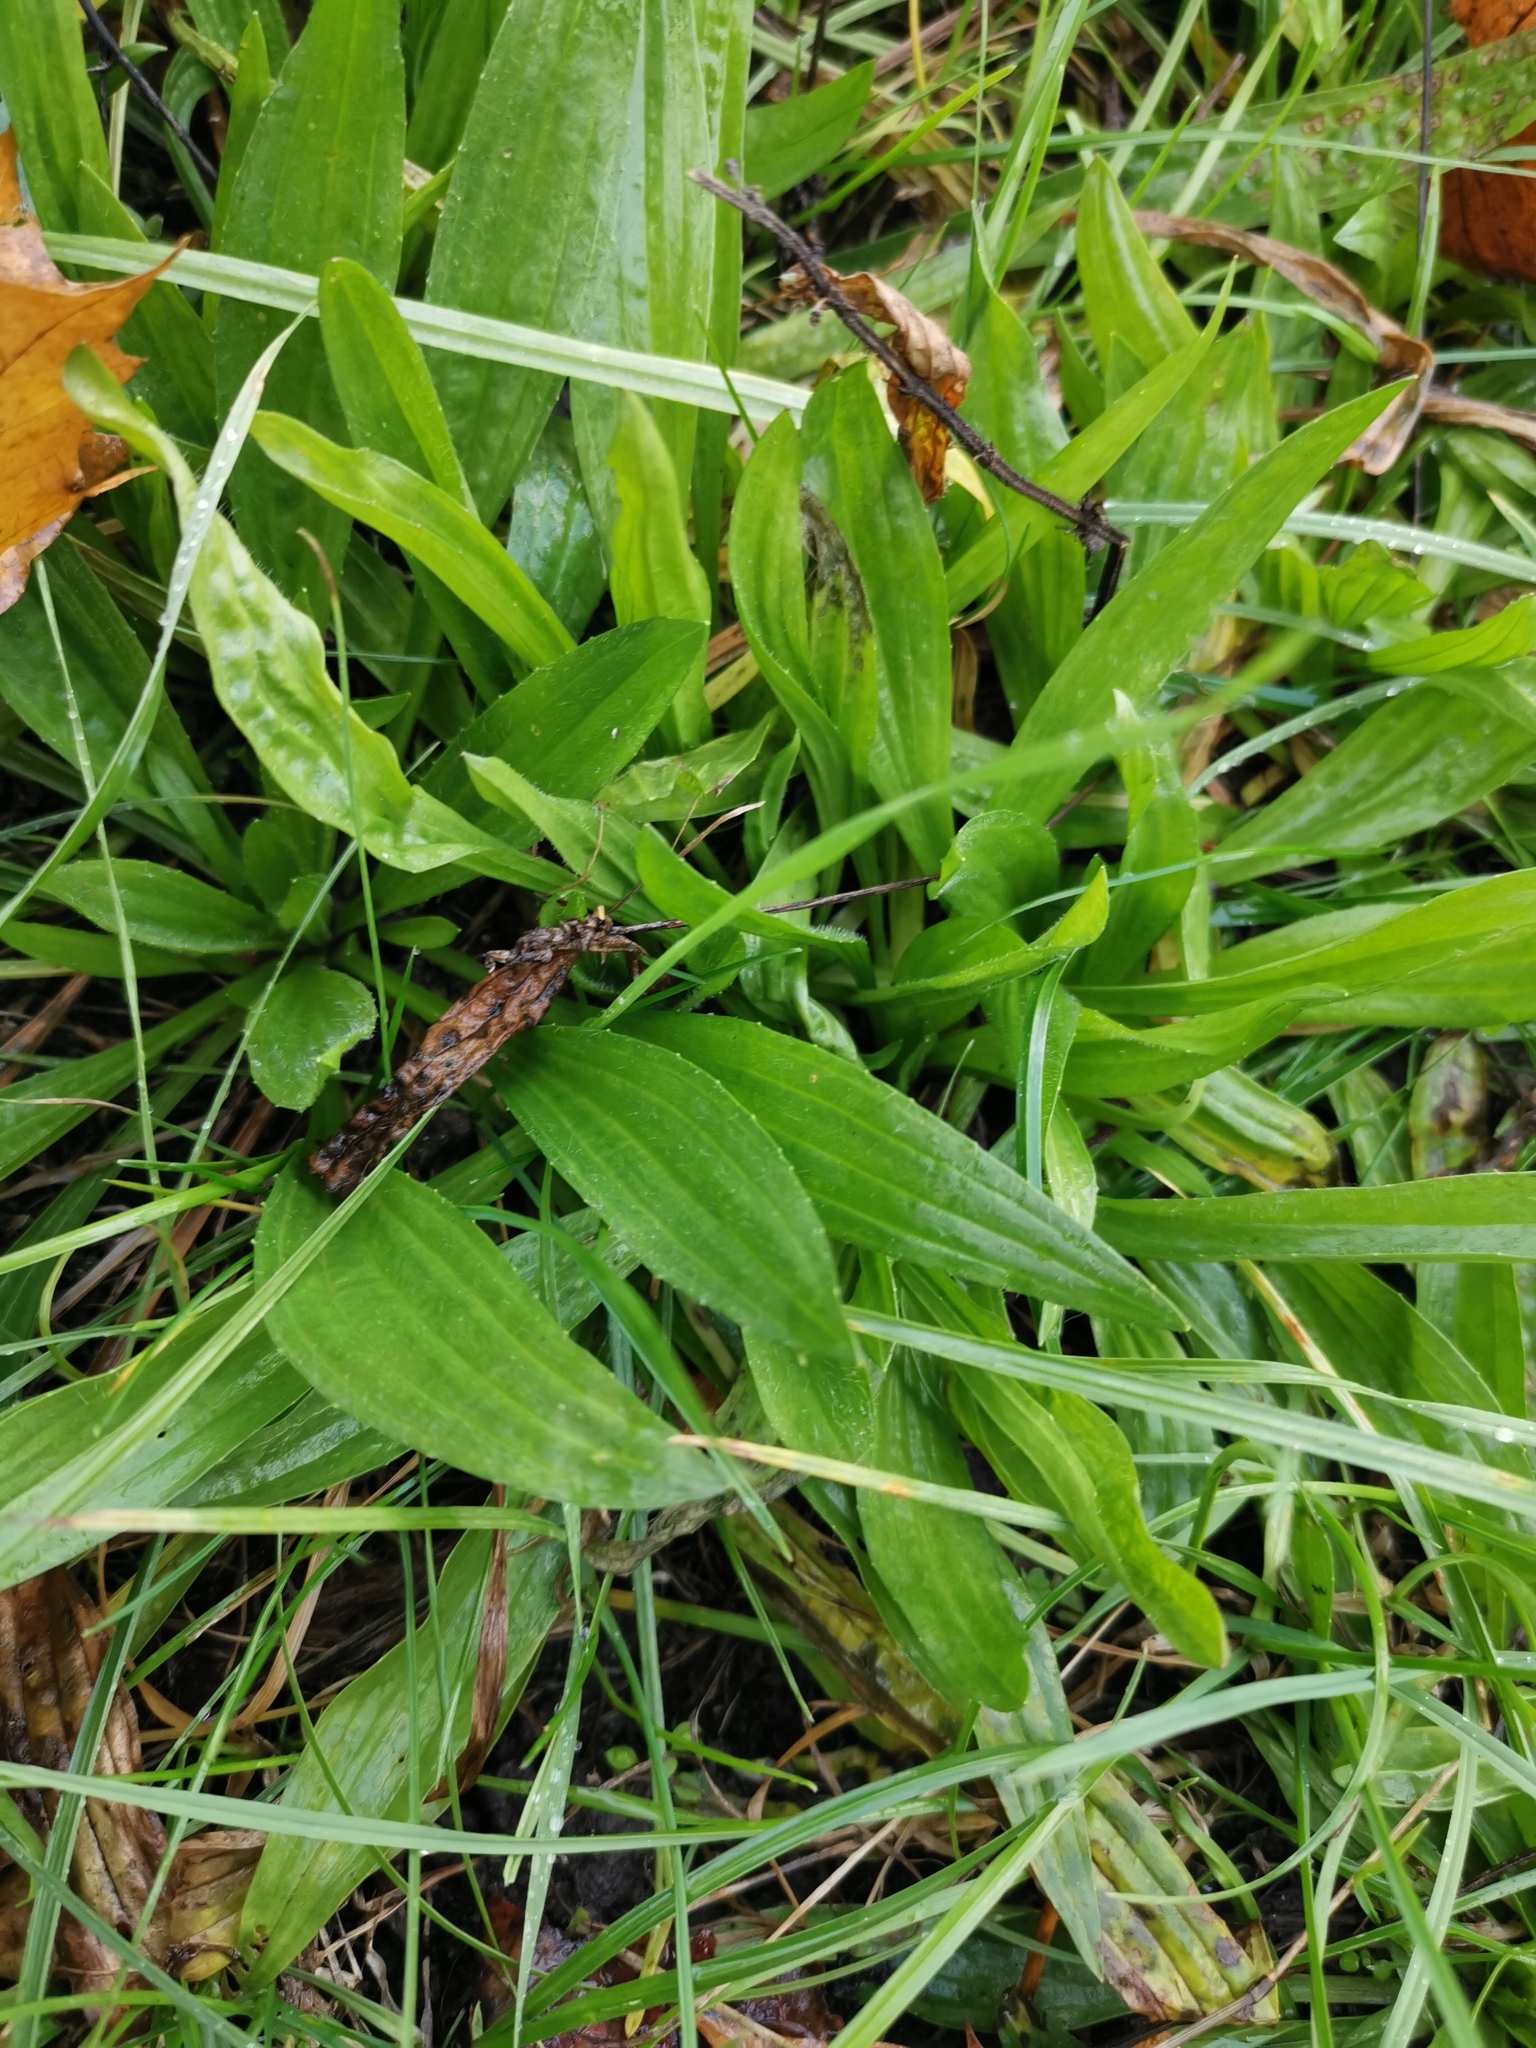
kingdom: Plantae
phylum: Tracheophyta
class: Magnoliopsida
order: Lamiales
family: Plantaginaceae
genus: Plantago
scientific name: Plantago lanceolata
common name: Ribwort plantain
